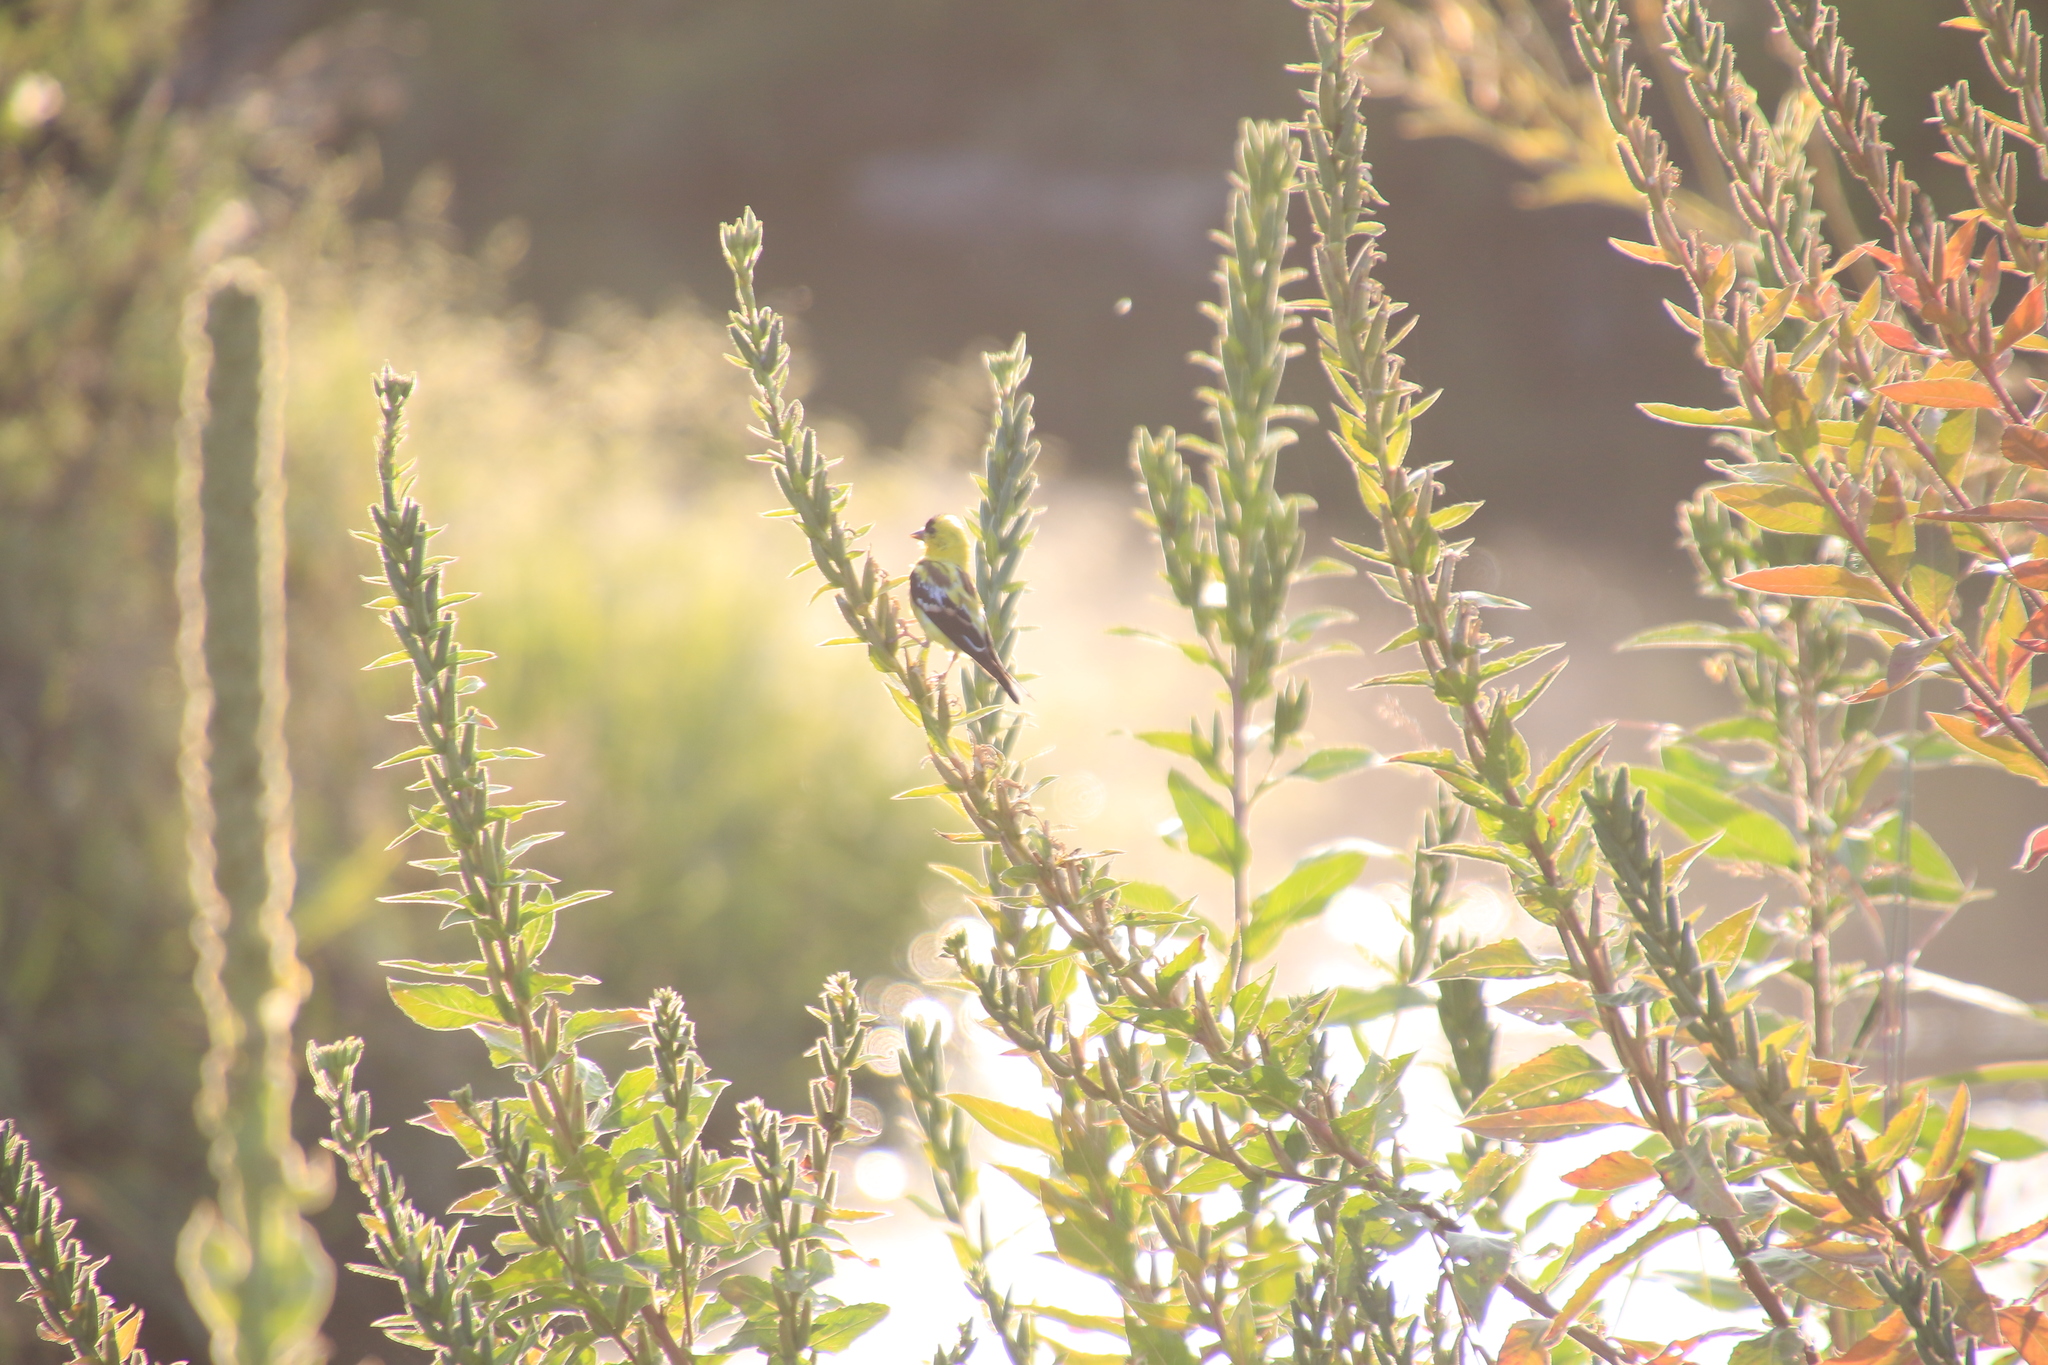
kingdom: Animalia
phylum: Chordata
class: Aves
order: Passeriformes
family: Fringillidae
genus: Spinus
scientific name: Spinus tristis
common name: American goldfinch
